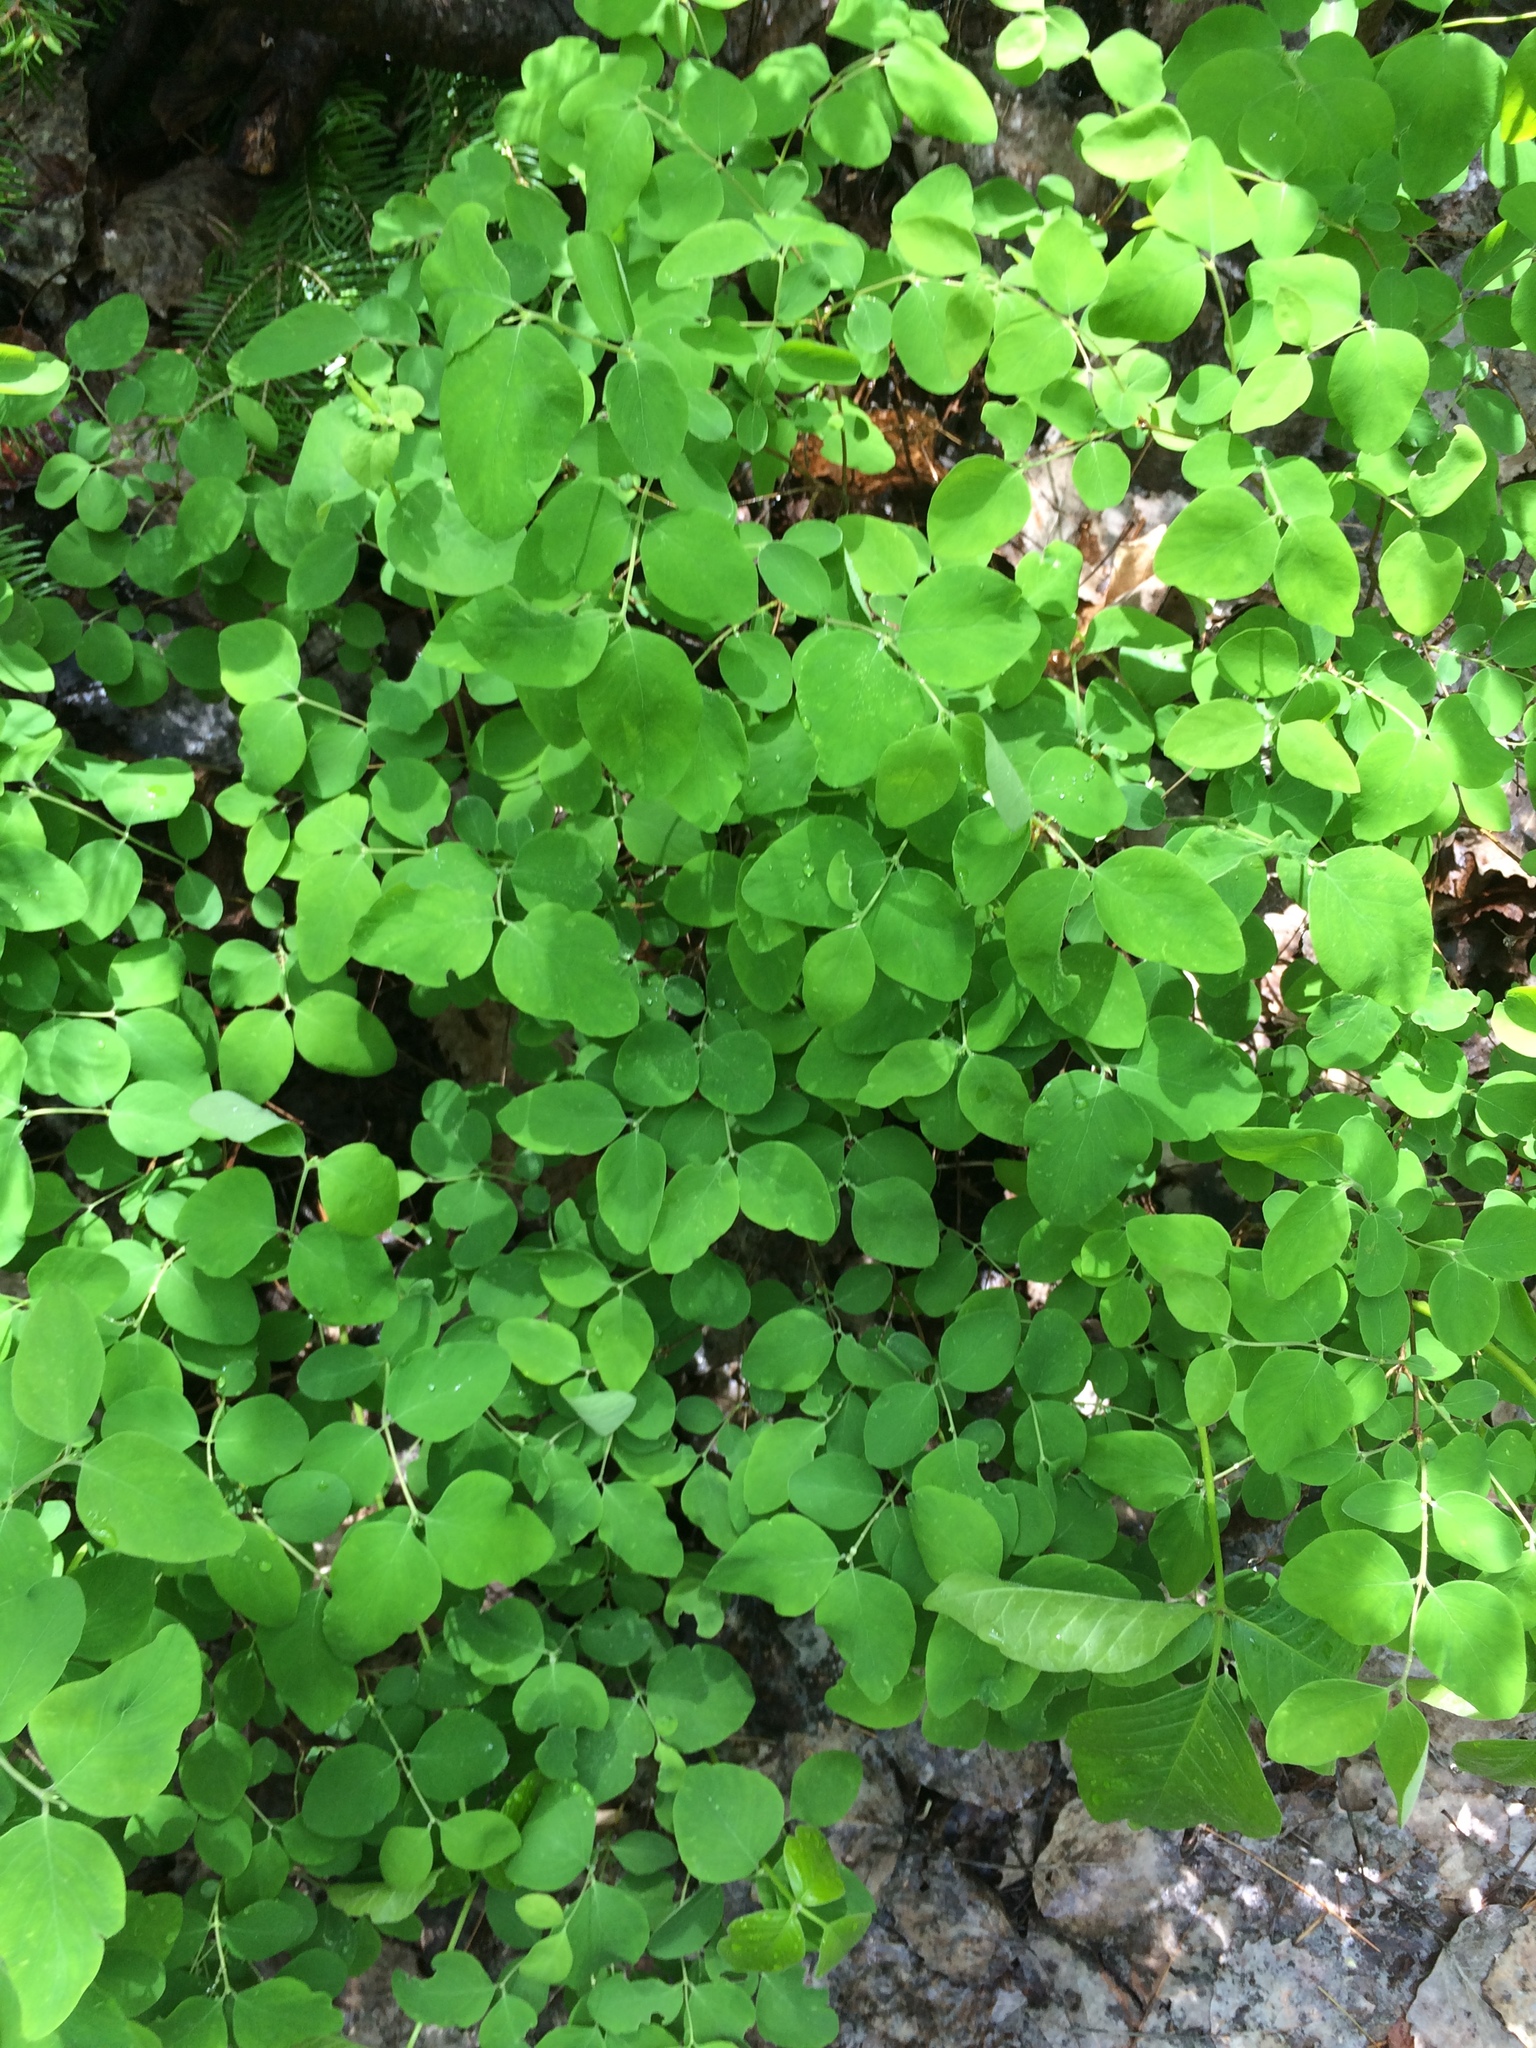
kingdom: Plantae
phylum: Tracheophyta
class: Magnoliopsida
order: Dipsacales
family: Caprifoliaceae
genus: Symphoricarpos
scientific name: Symphoricarpos albus
